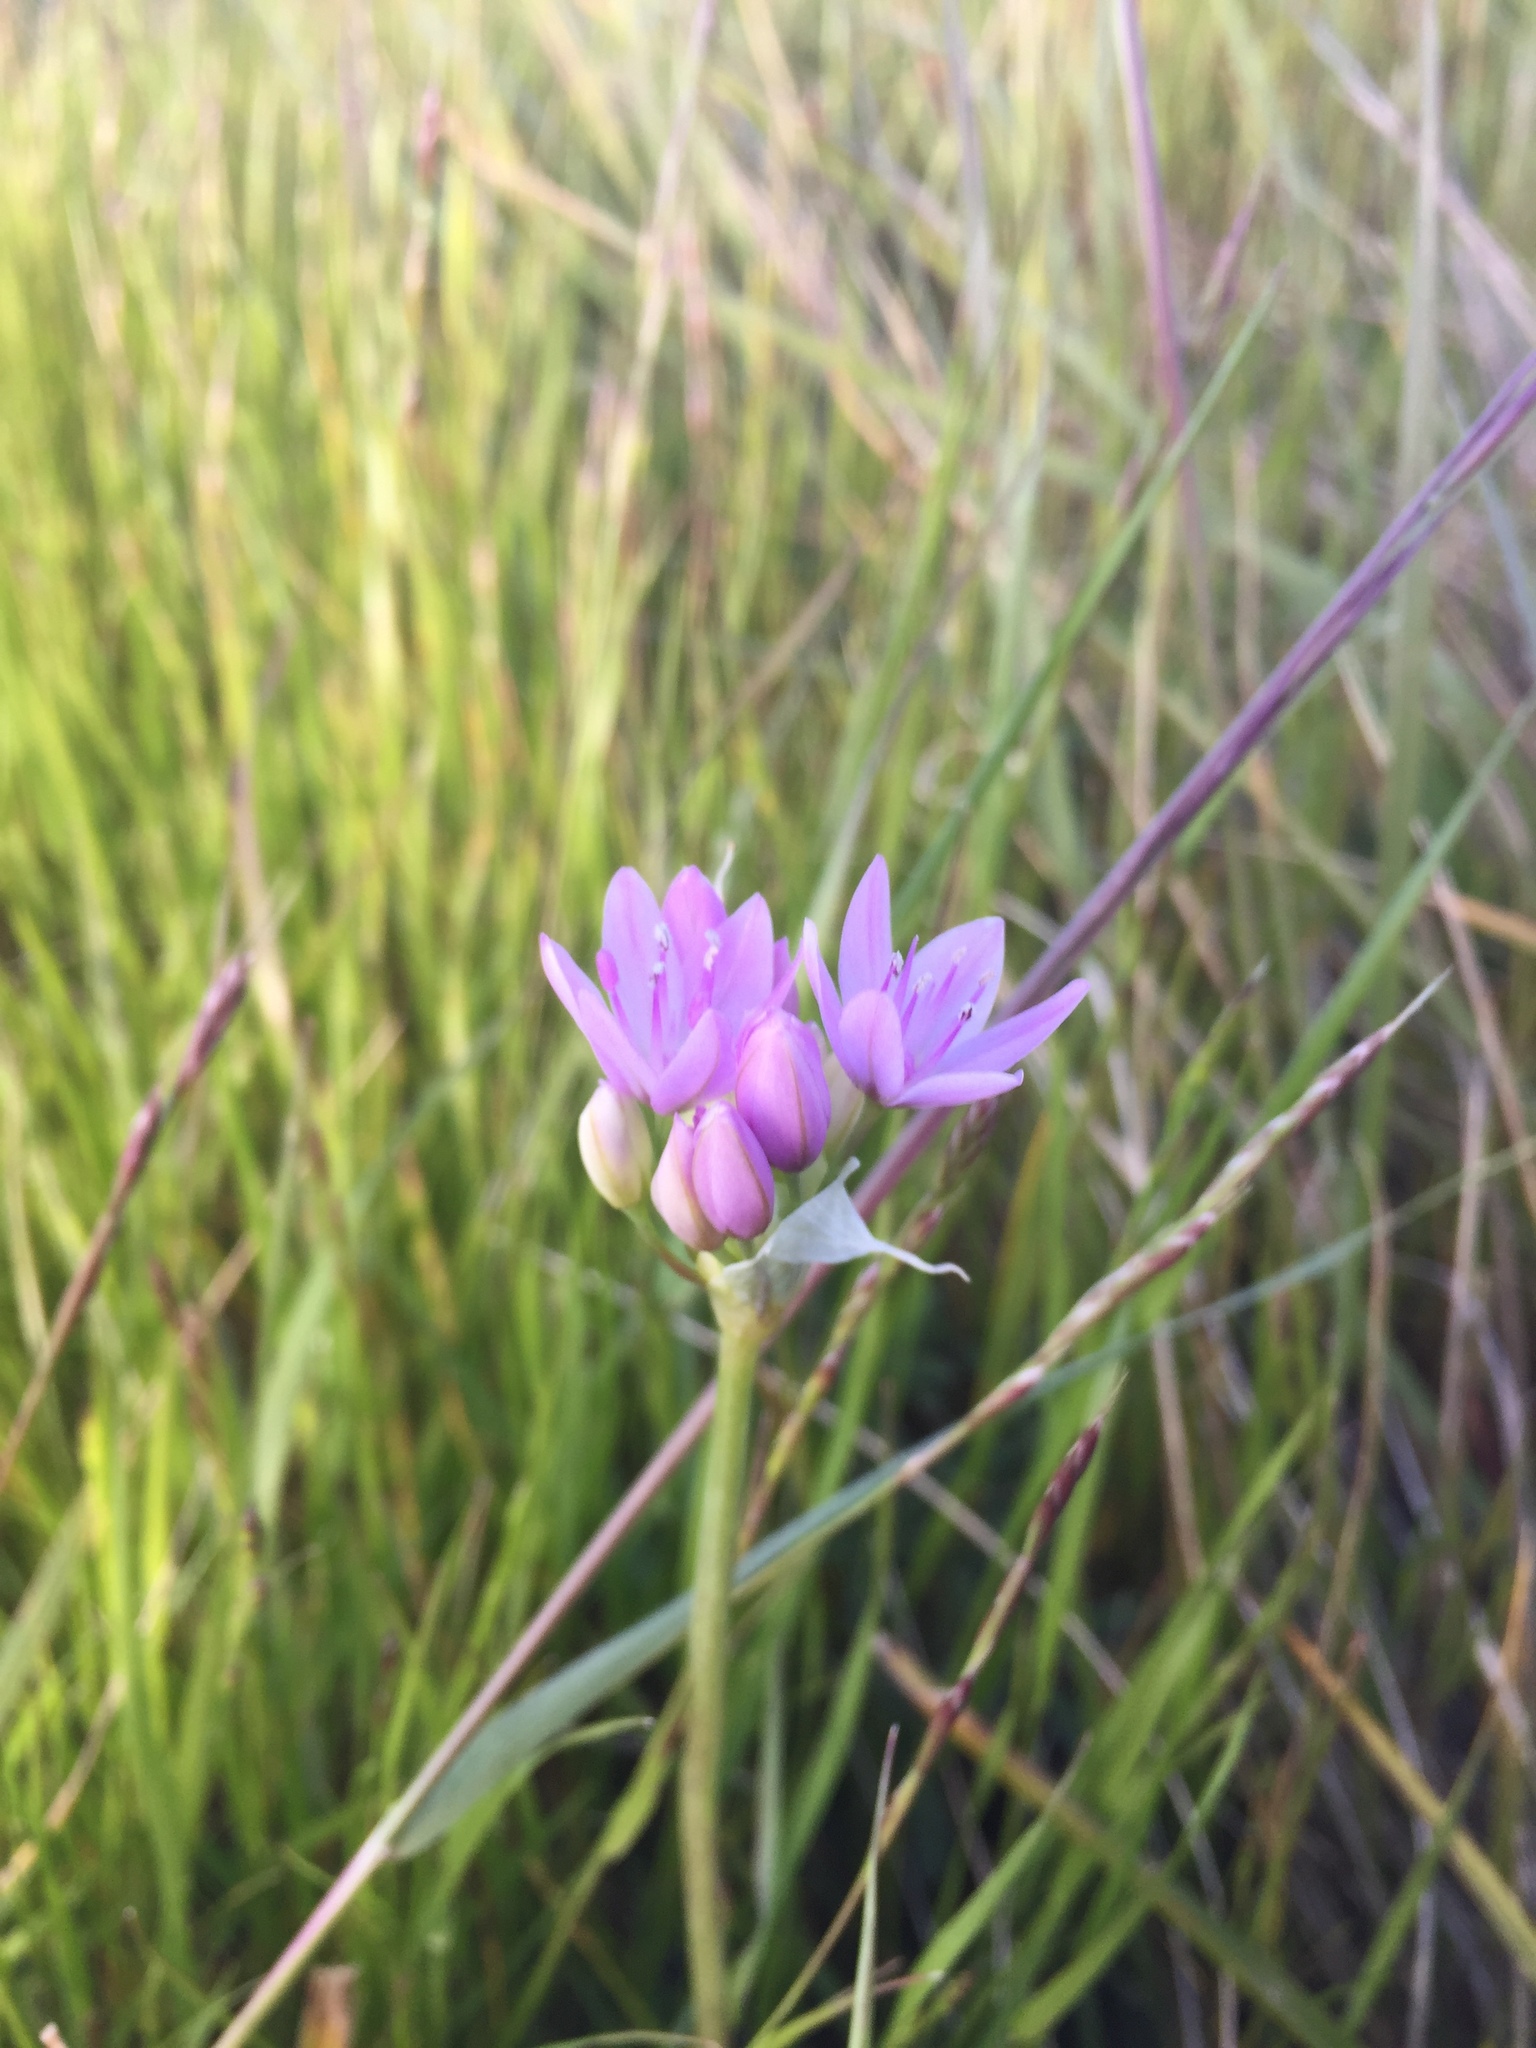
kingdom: Plantae
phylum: Tracheophyta
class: Liliopsida
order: Asparagales
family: Amaryllidaceae
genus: Allium
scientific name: Allium unifolium
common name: American garlic
